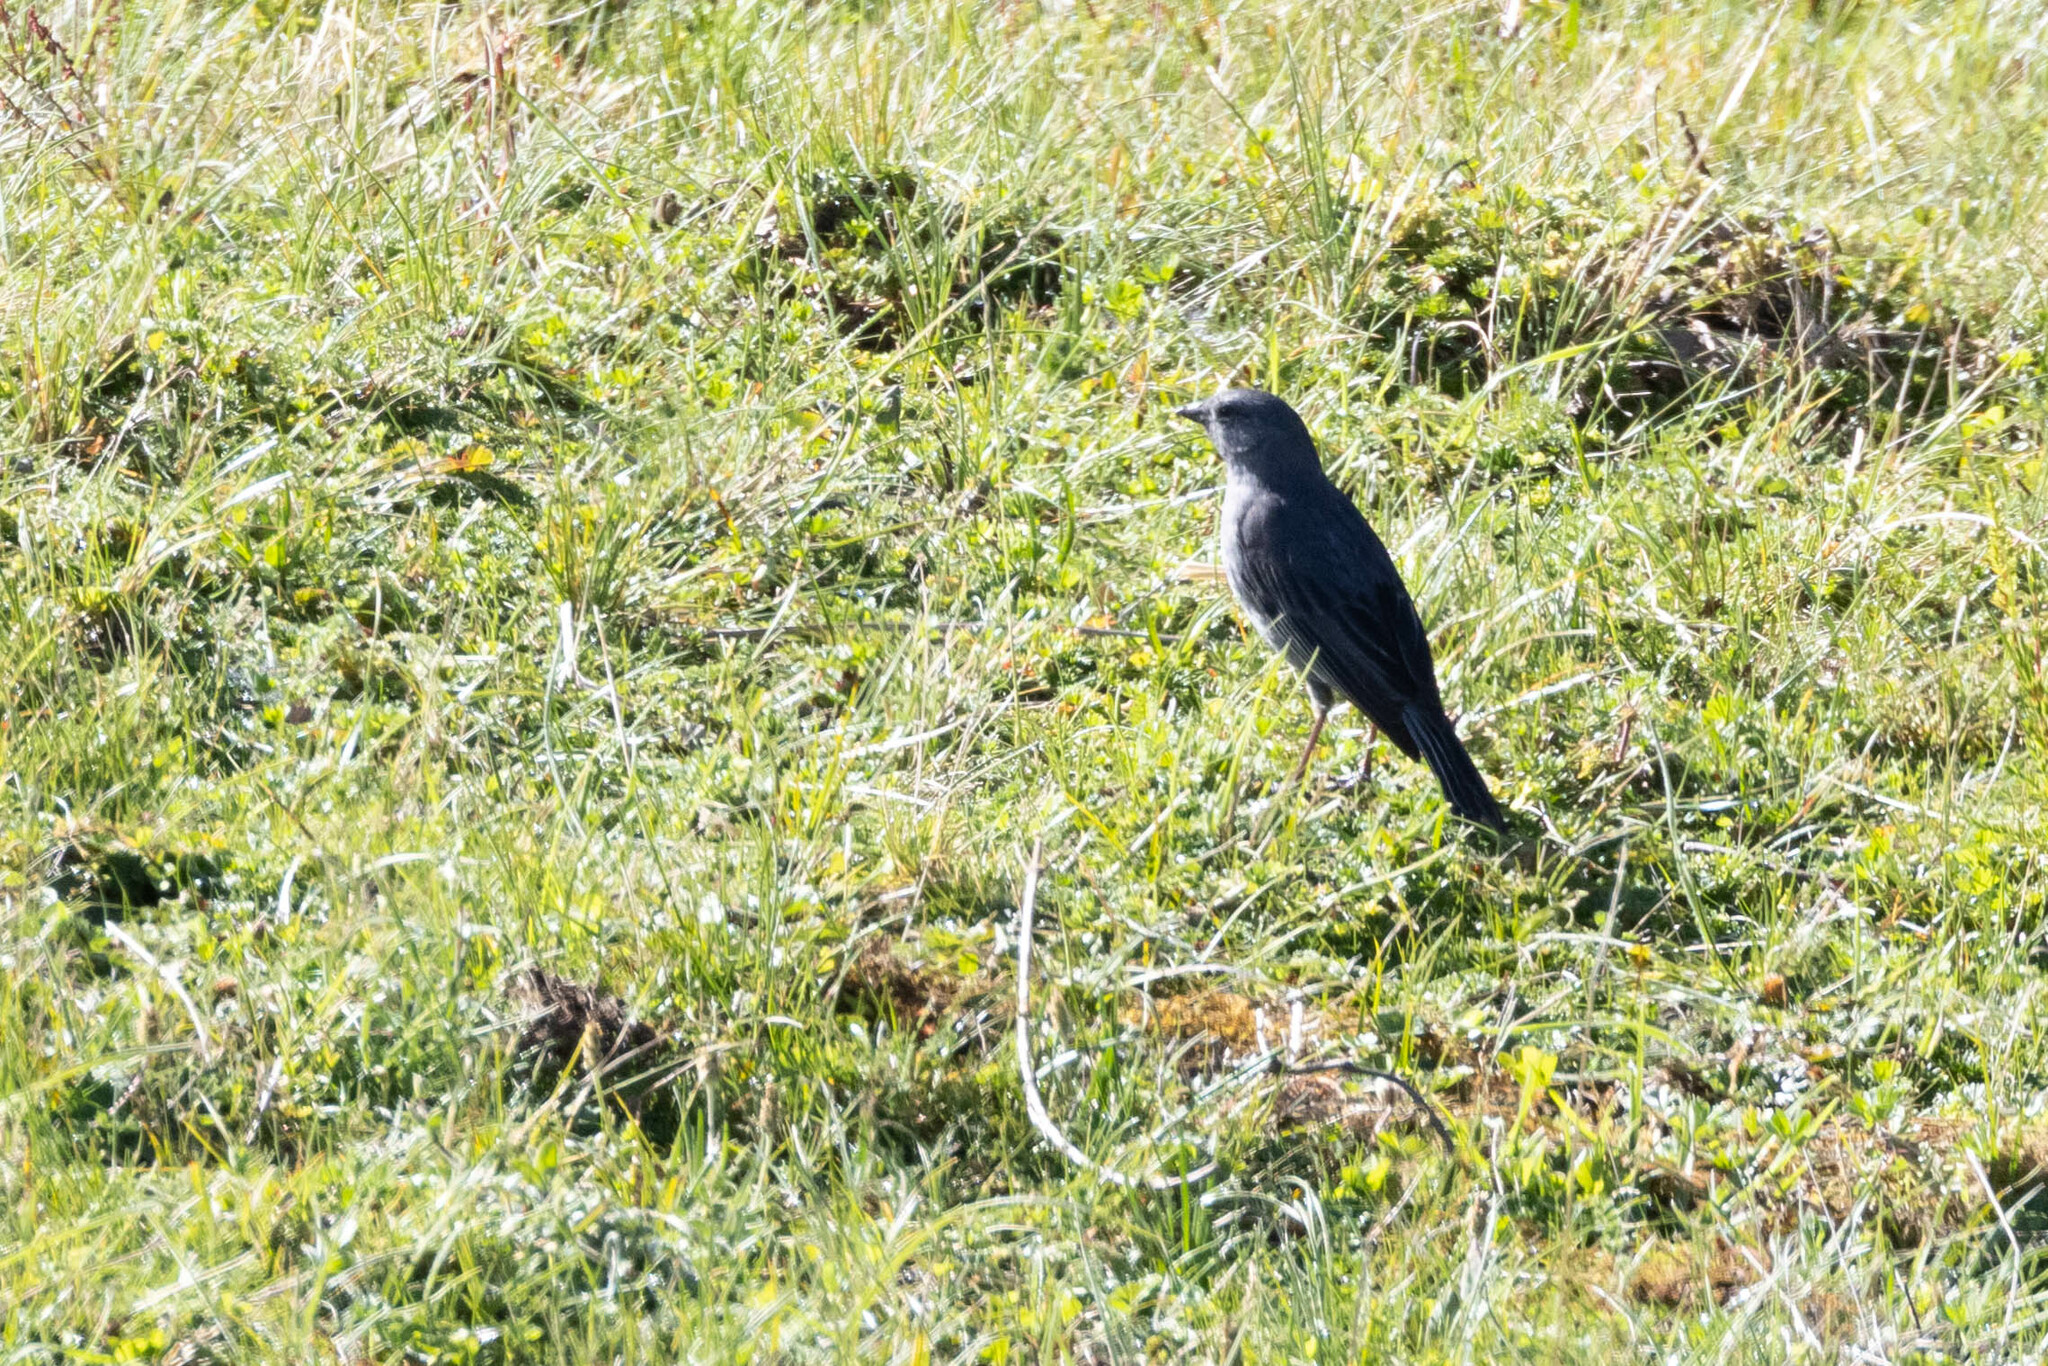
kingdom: Animalia
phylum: Chordata
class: Aves
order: Passeriformes
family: Thraupidae
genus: Geospizopsis
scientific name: Geospizopsis unicolor
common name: Plumbeous sierra-finch
